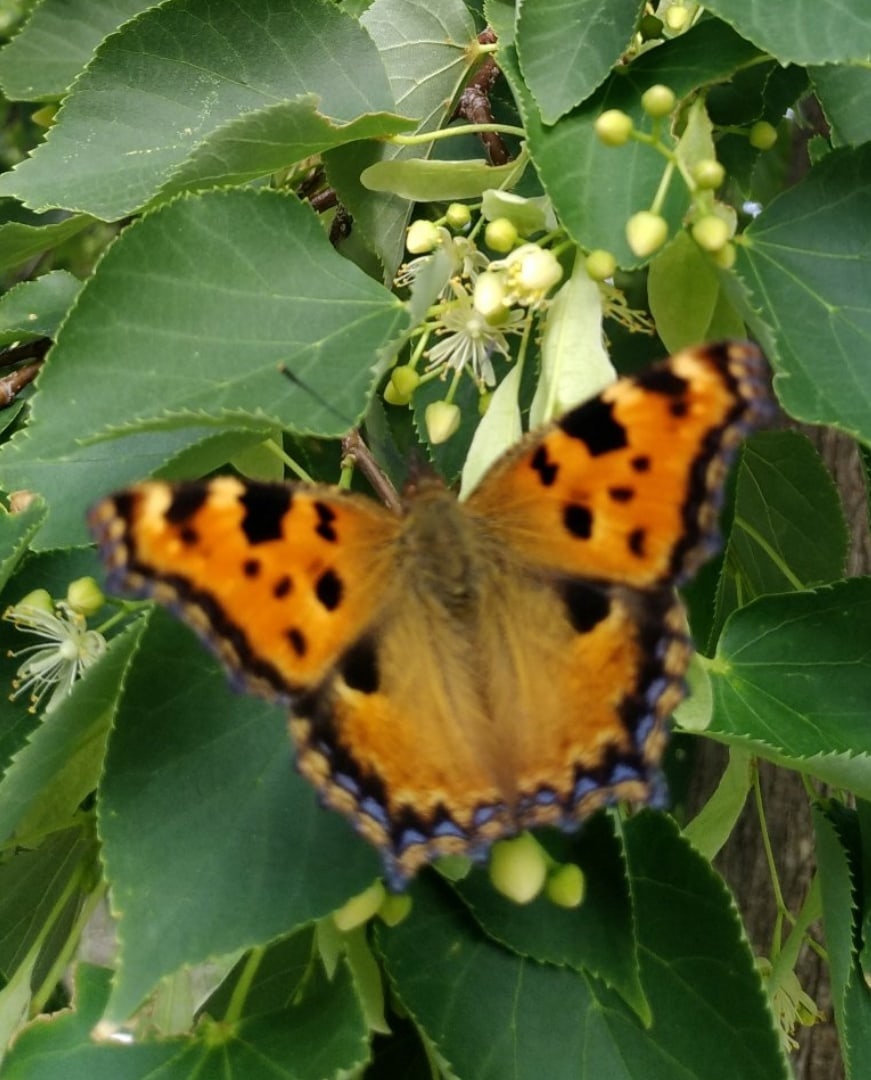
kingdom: Animalia
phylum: Arthropoda
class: Insecta
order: Lepidoptera
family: Nymphalidae
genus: Nymphalis
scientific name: Nymphalis polychloros
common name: Large tortoiseshell
